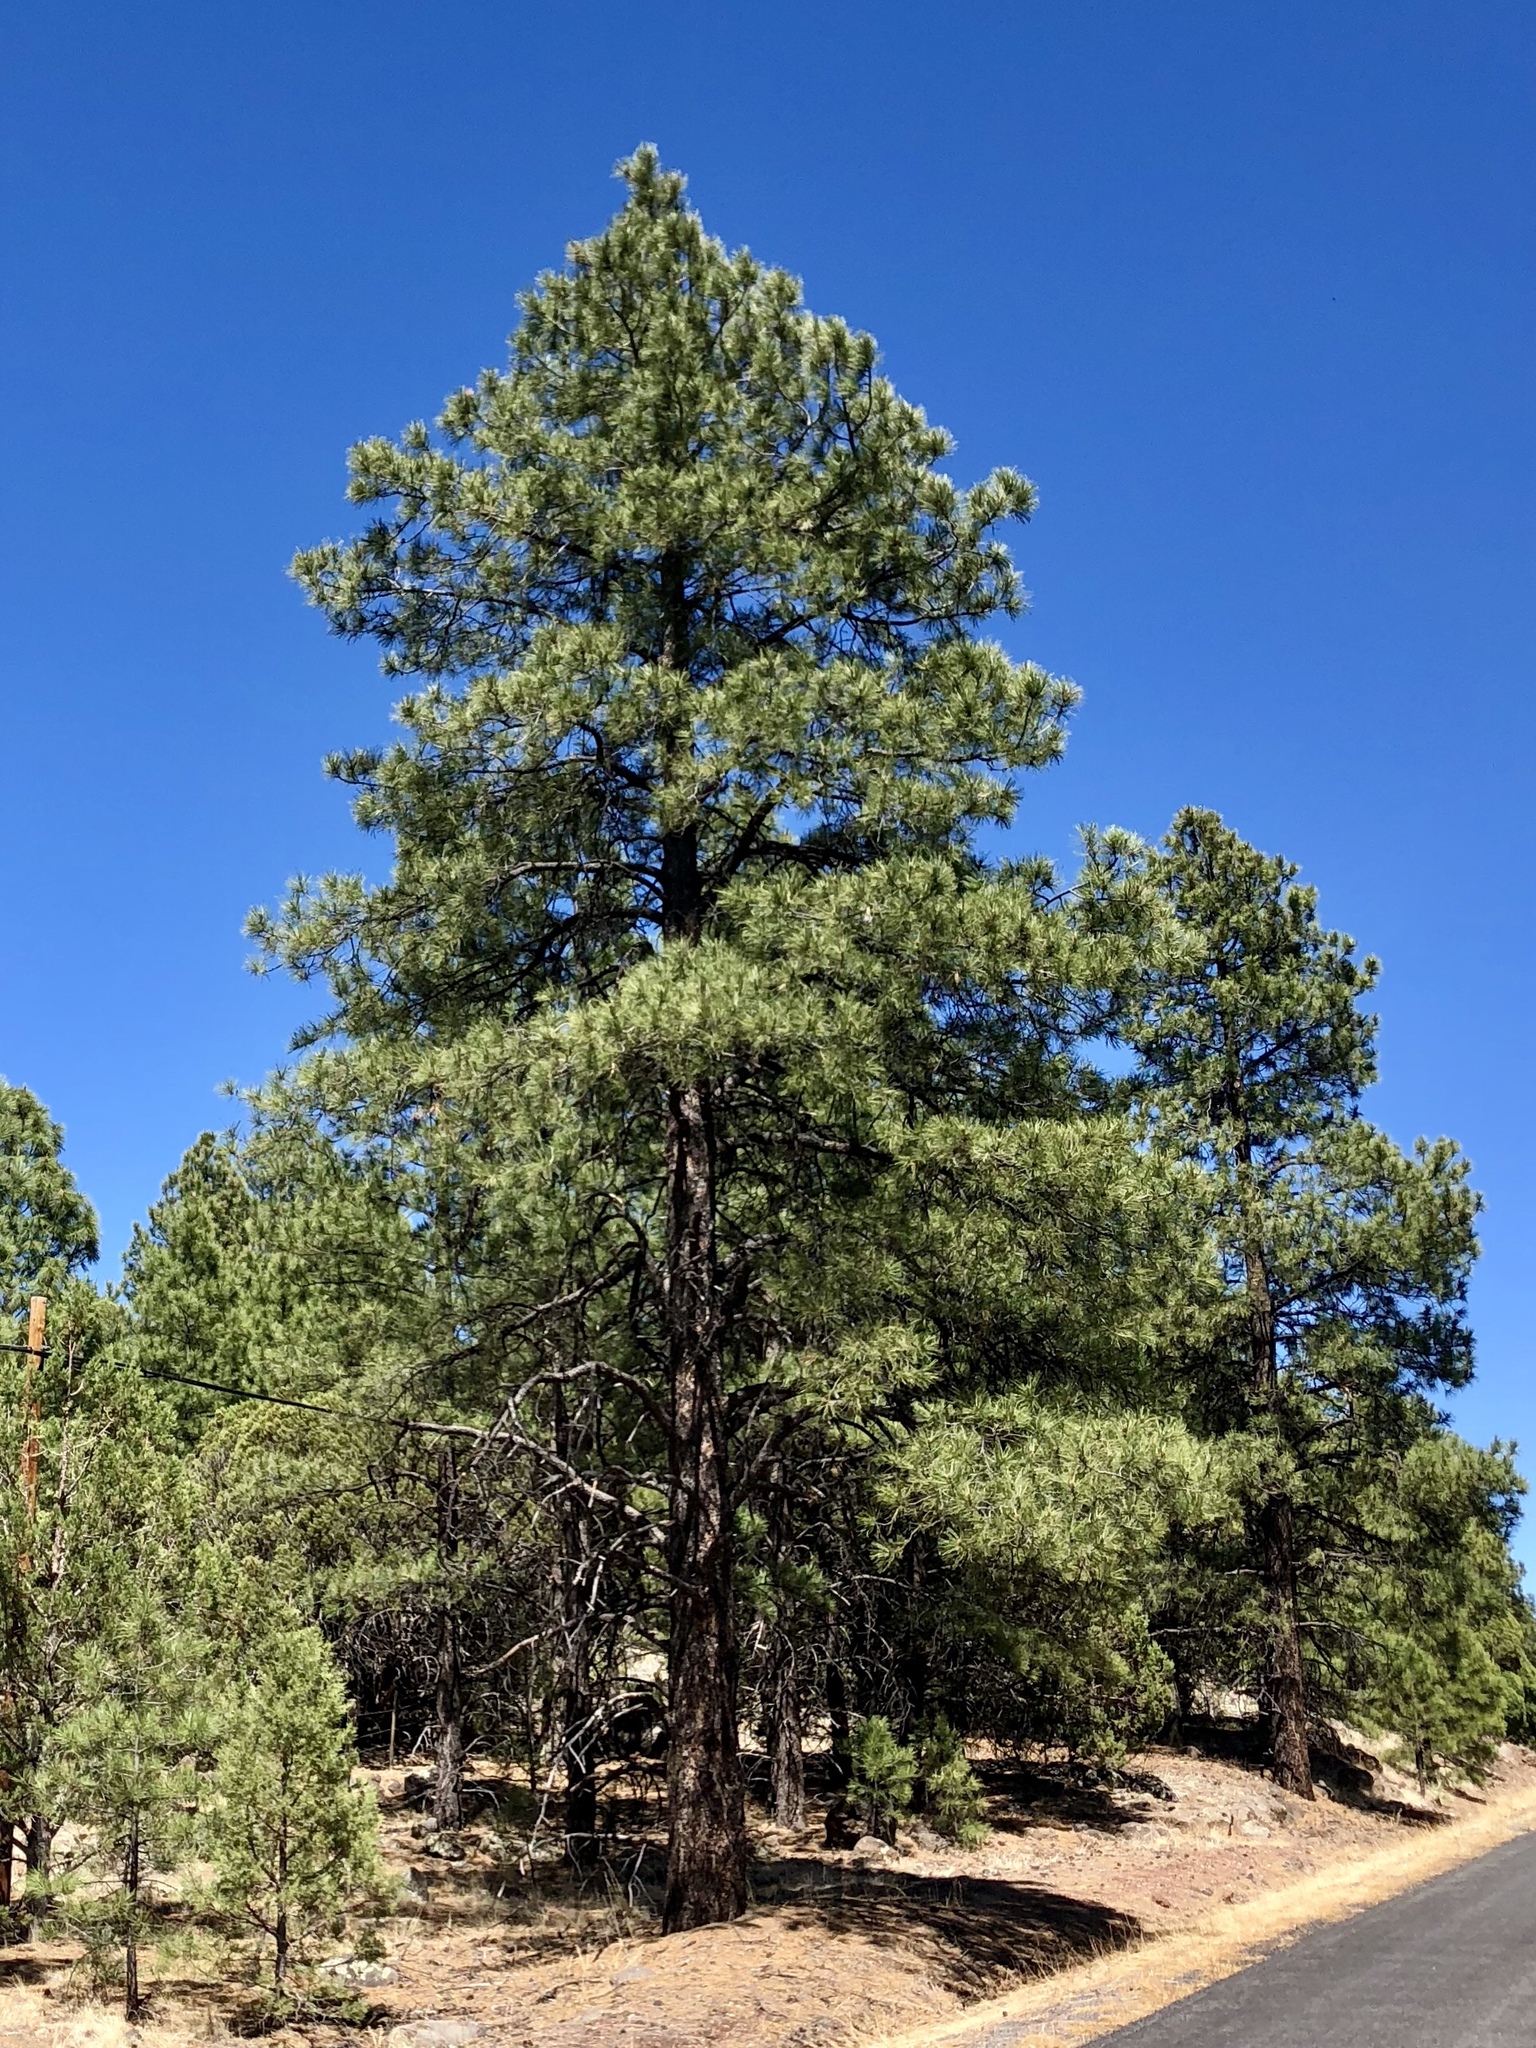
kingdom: Plantae
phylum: Tracheophyta
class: Pinopsida
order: Pinales
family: Pinaceae
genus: Pinus
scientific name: Pinus ponderosa
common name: Western yellow-pine
